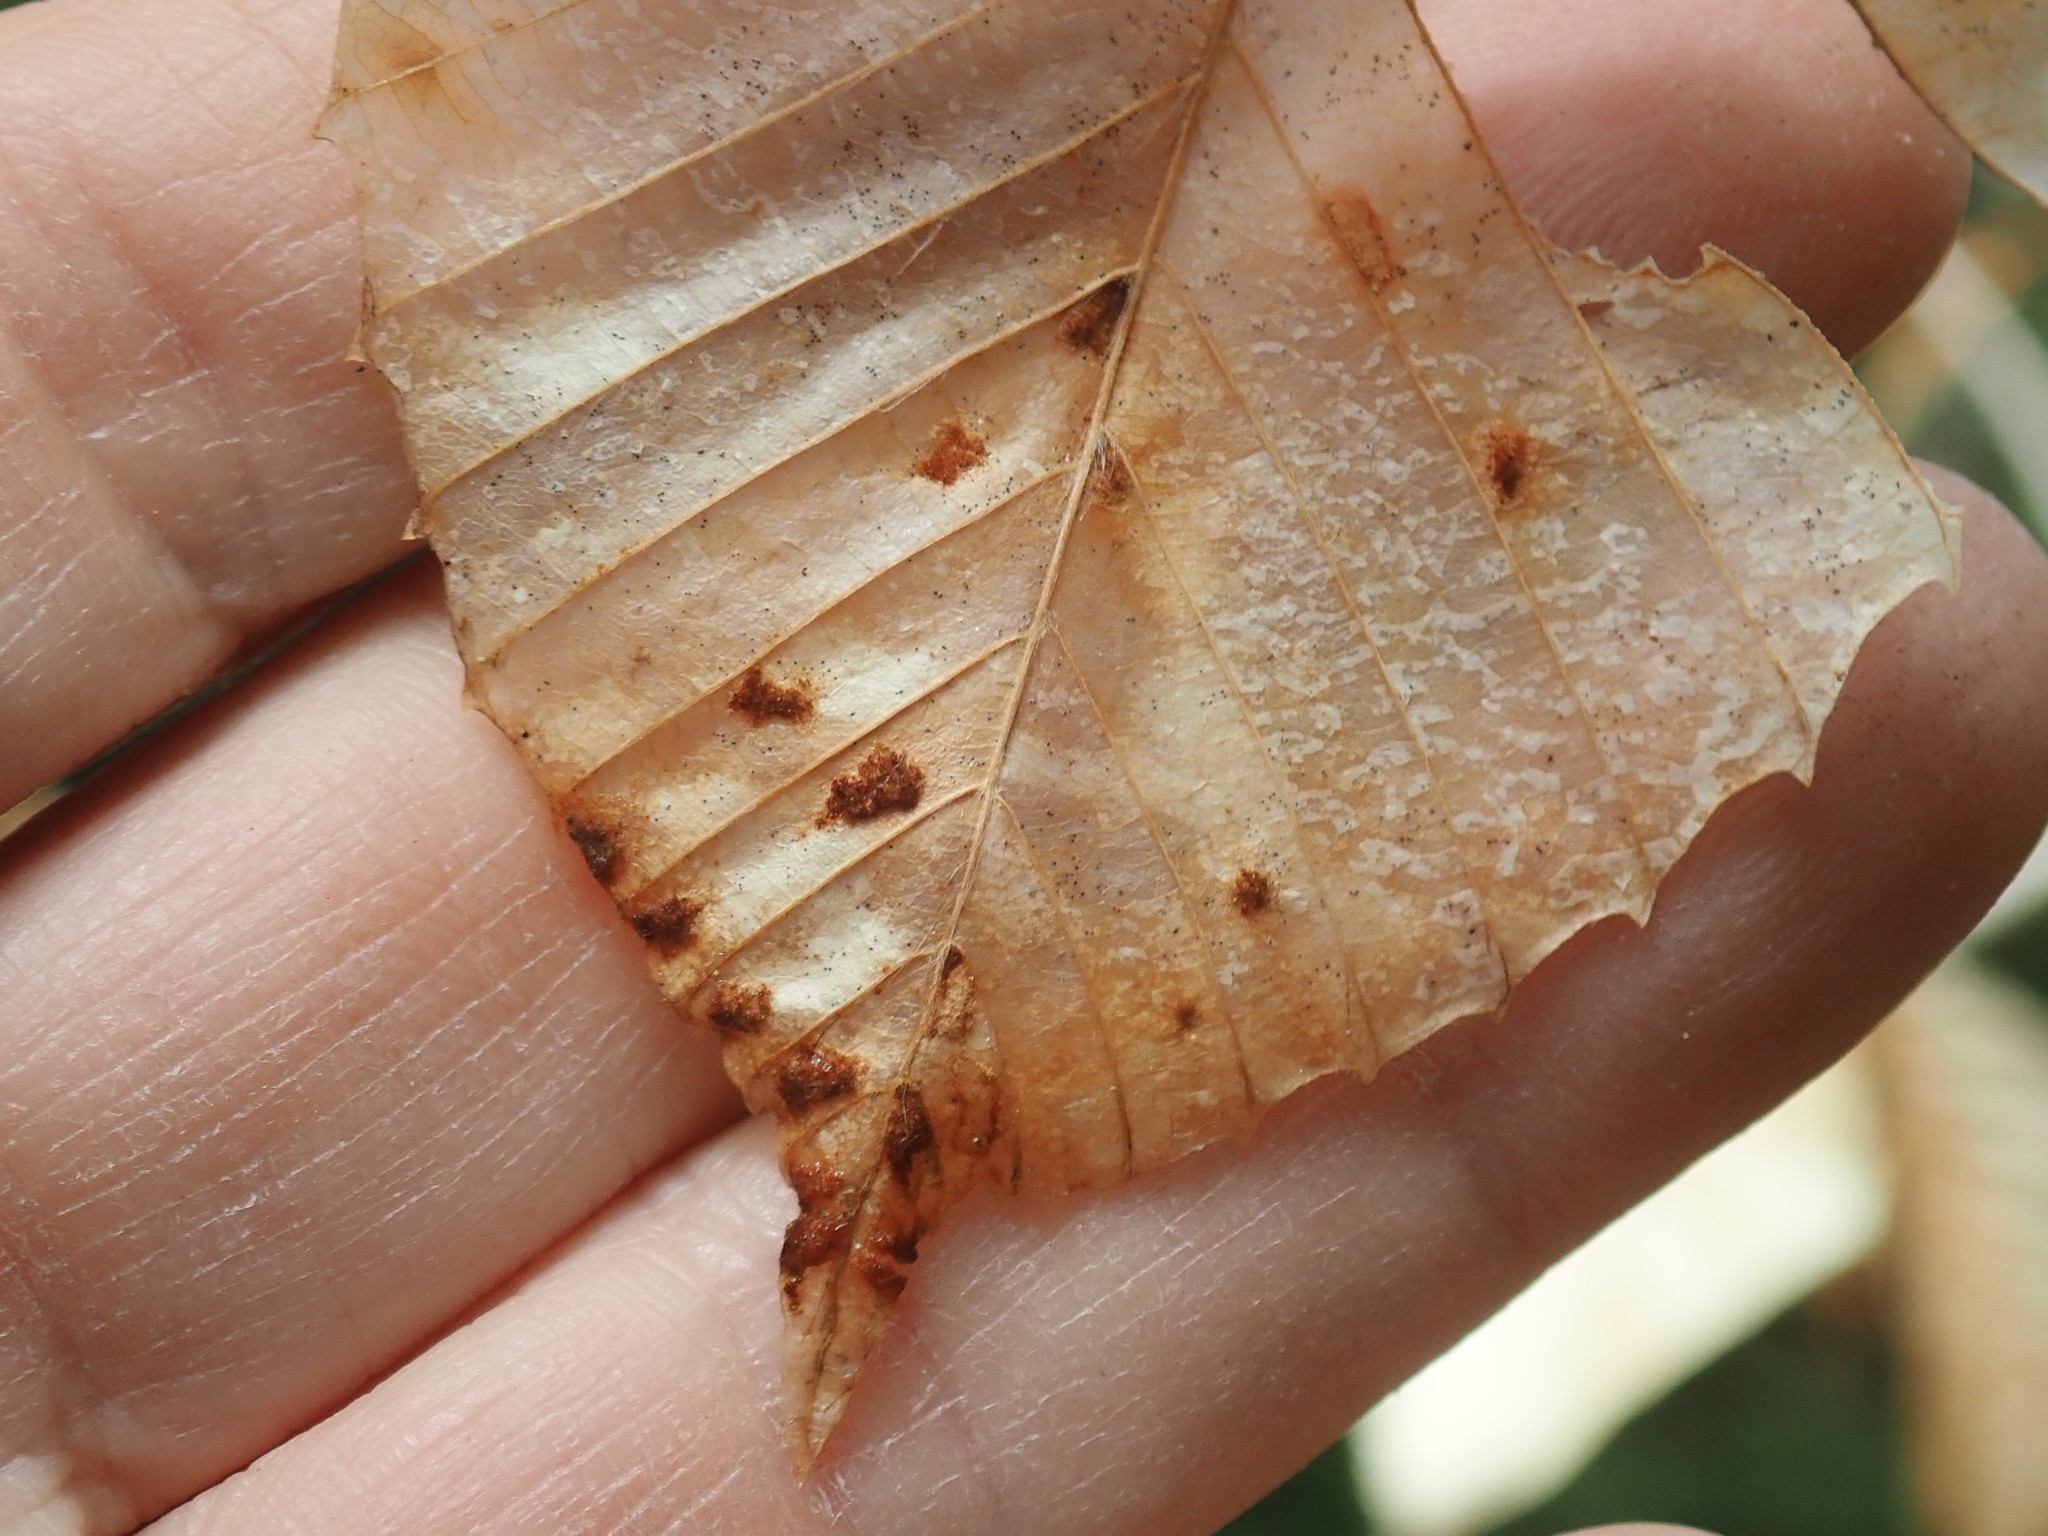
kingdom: Animalia
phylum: Arthropoda
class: Arachnida
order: Trombidiformes
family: Eriophyidae
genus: Acalitus
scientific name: Acalitus
